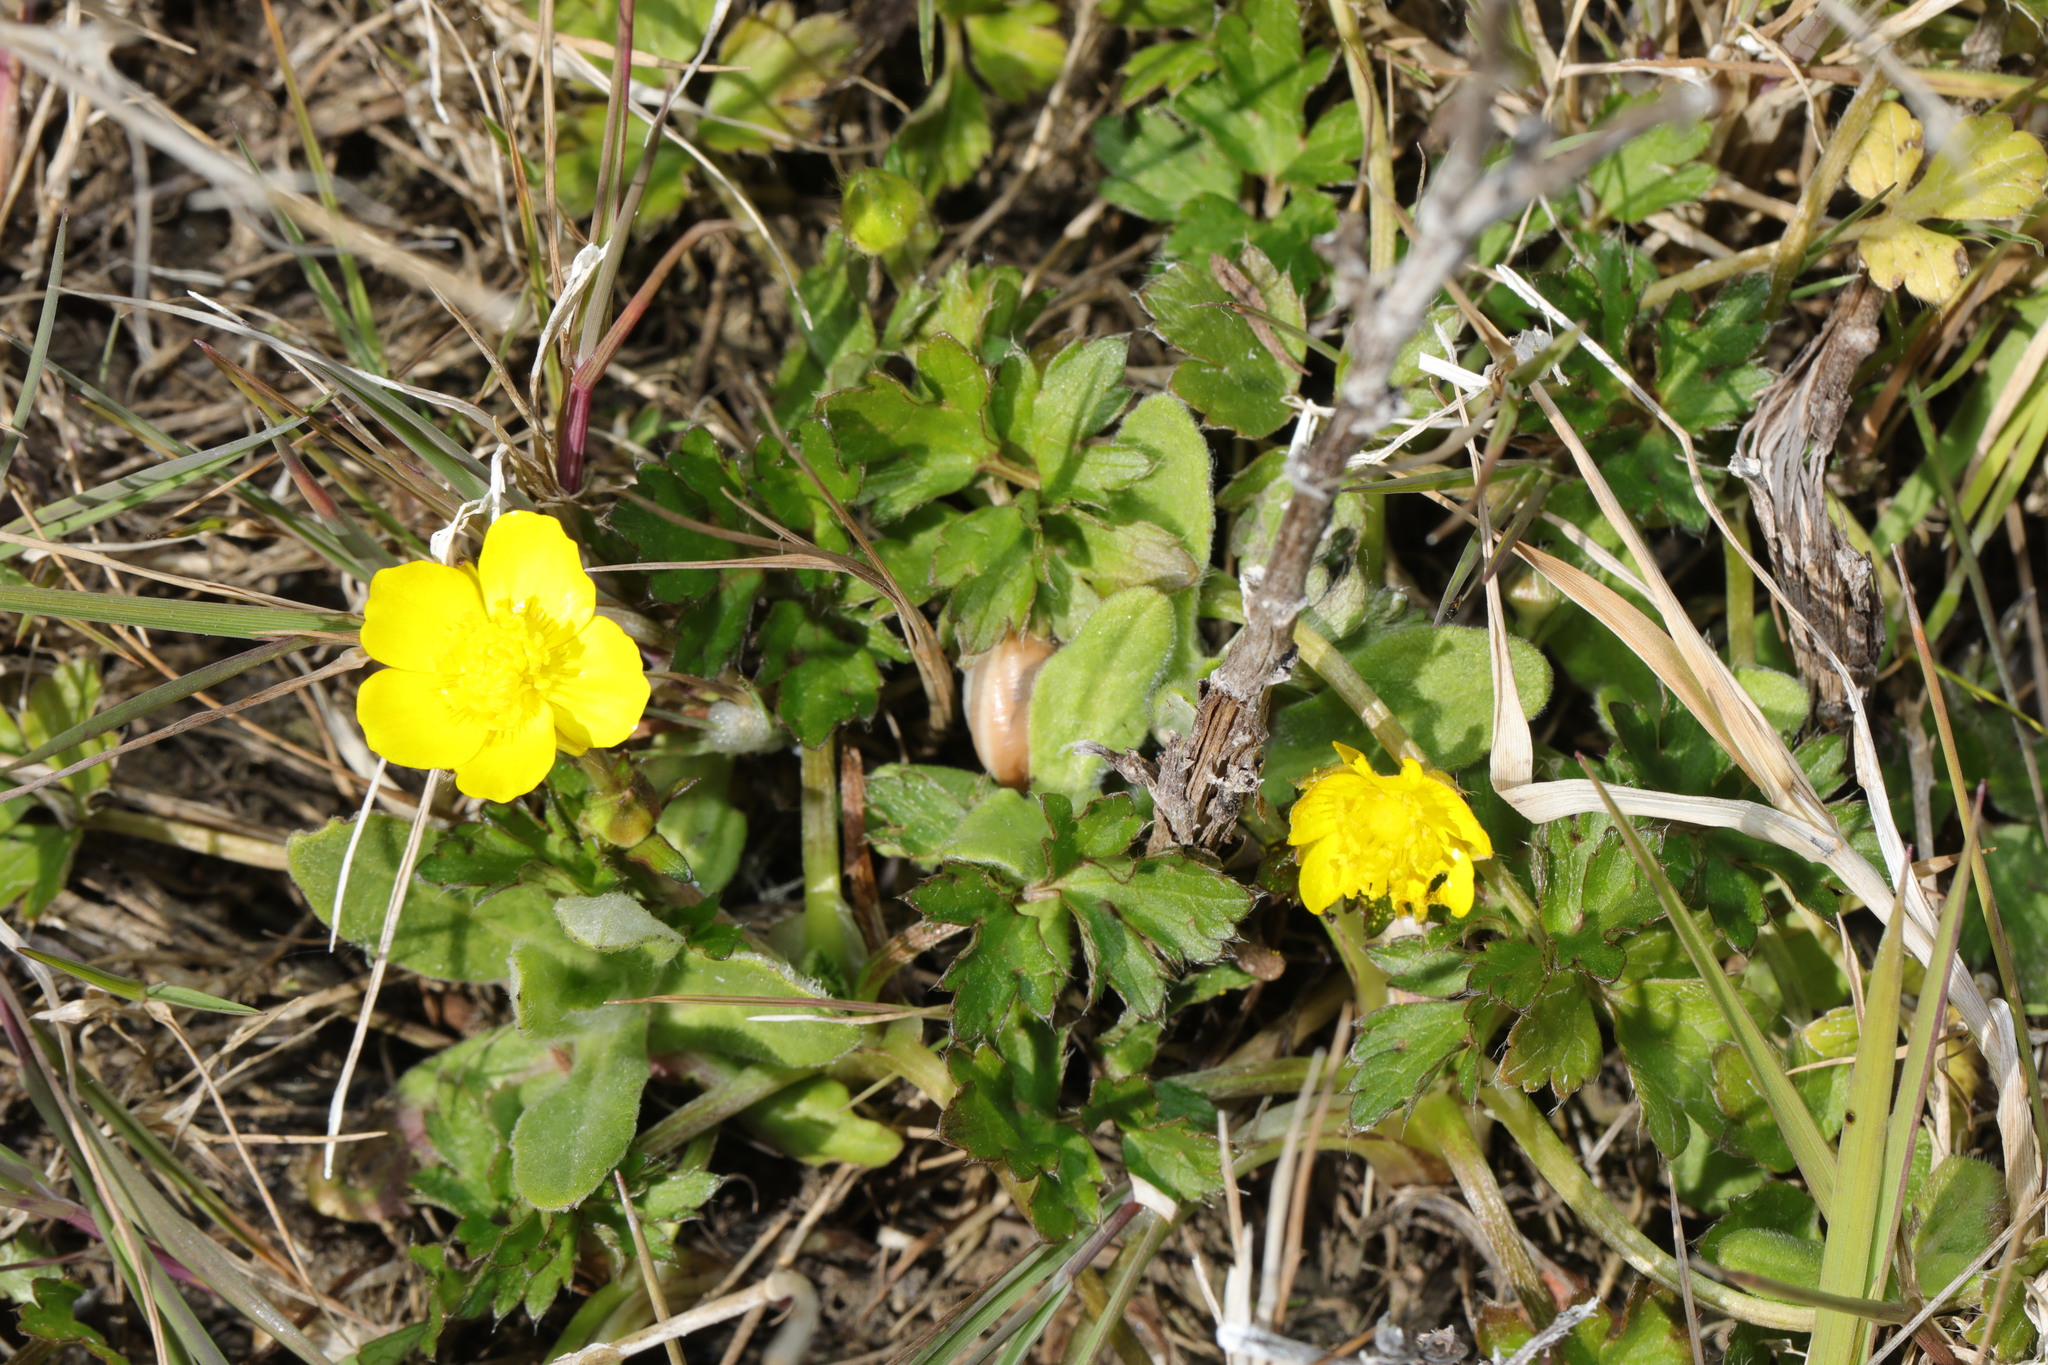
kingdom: Plantae
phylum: Tracheophyta
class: Magnoliopsida
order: Ranunculales
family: Ranunculaceae
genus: Ranunculus
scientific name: Ranunculus repens
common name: Creeping buttercup
